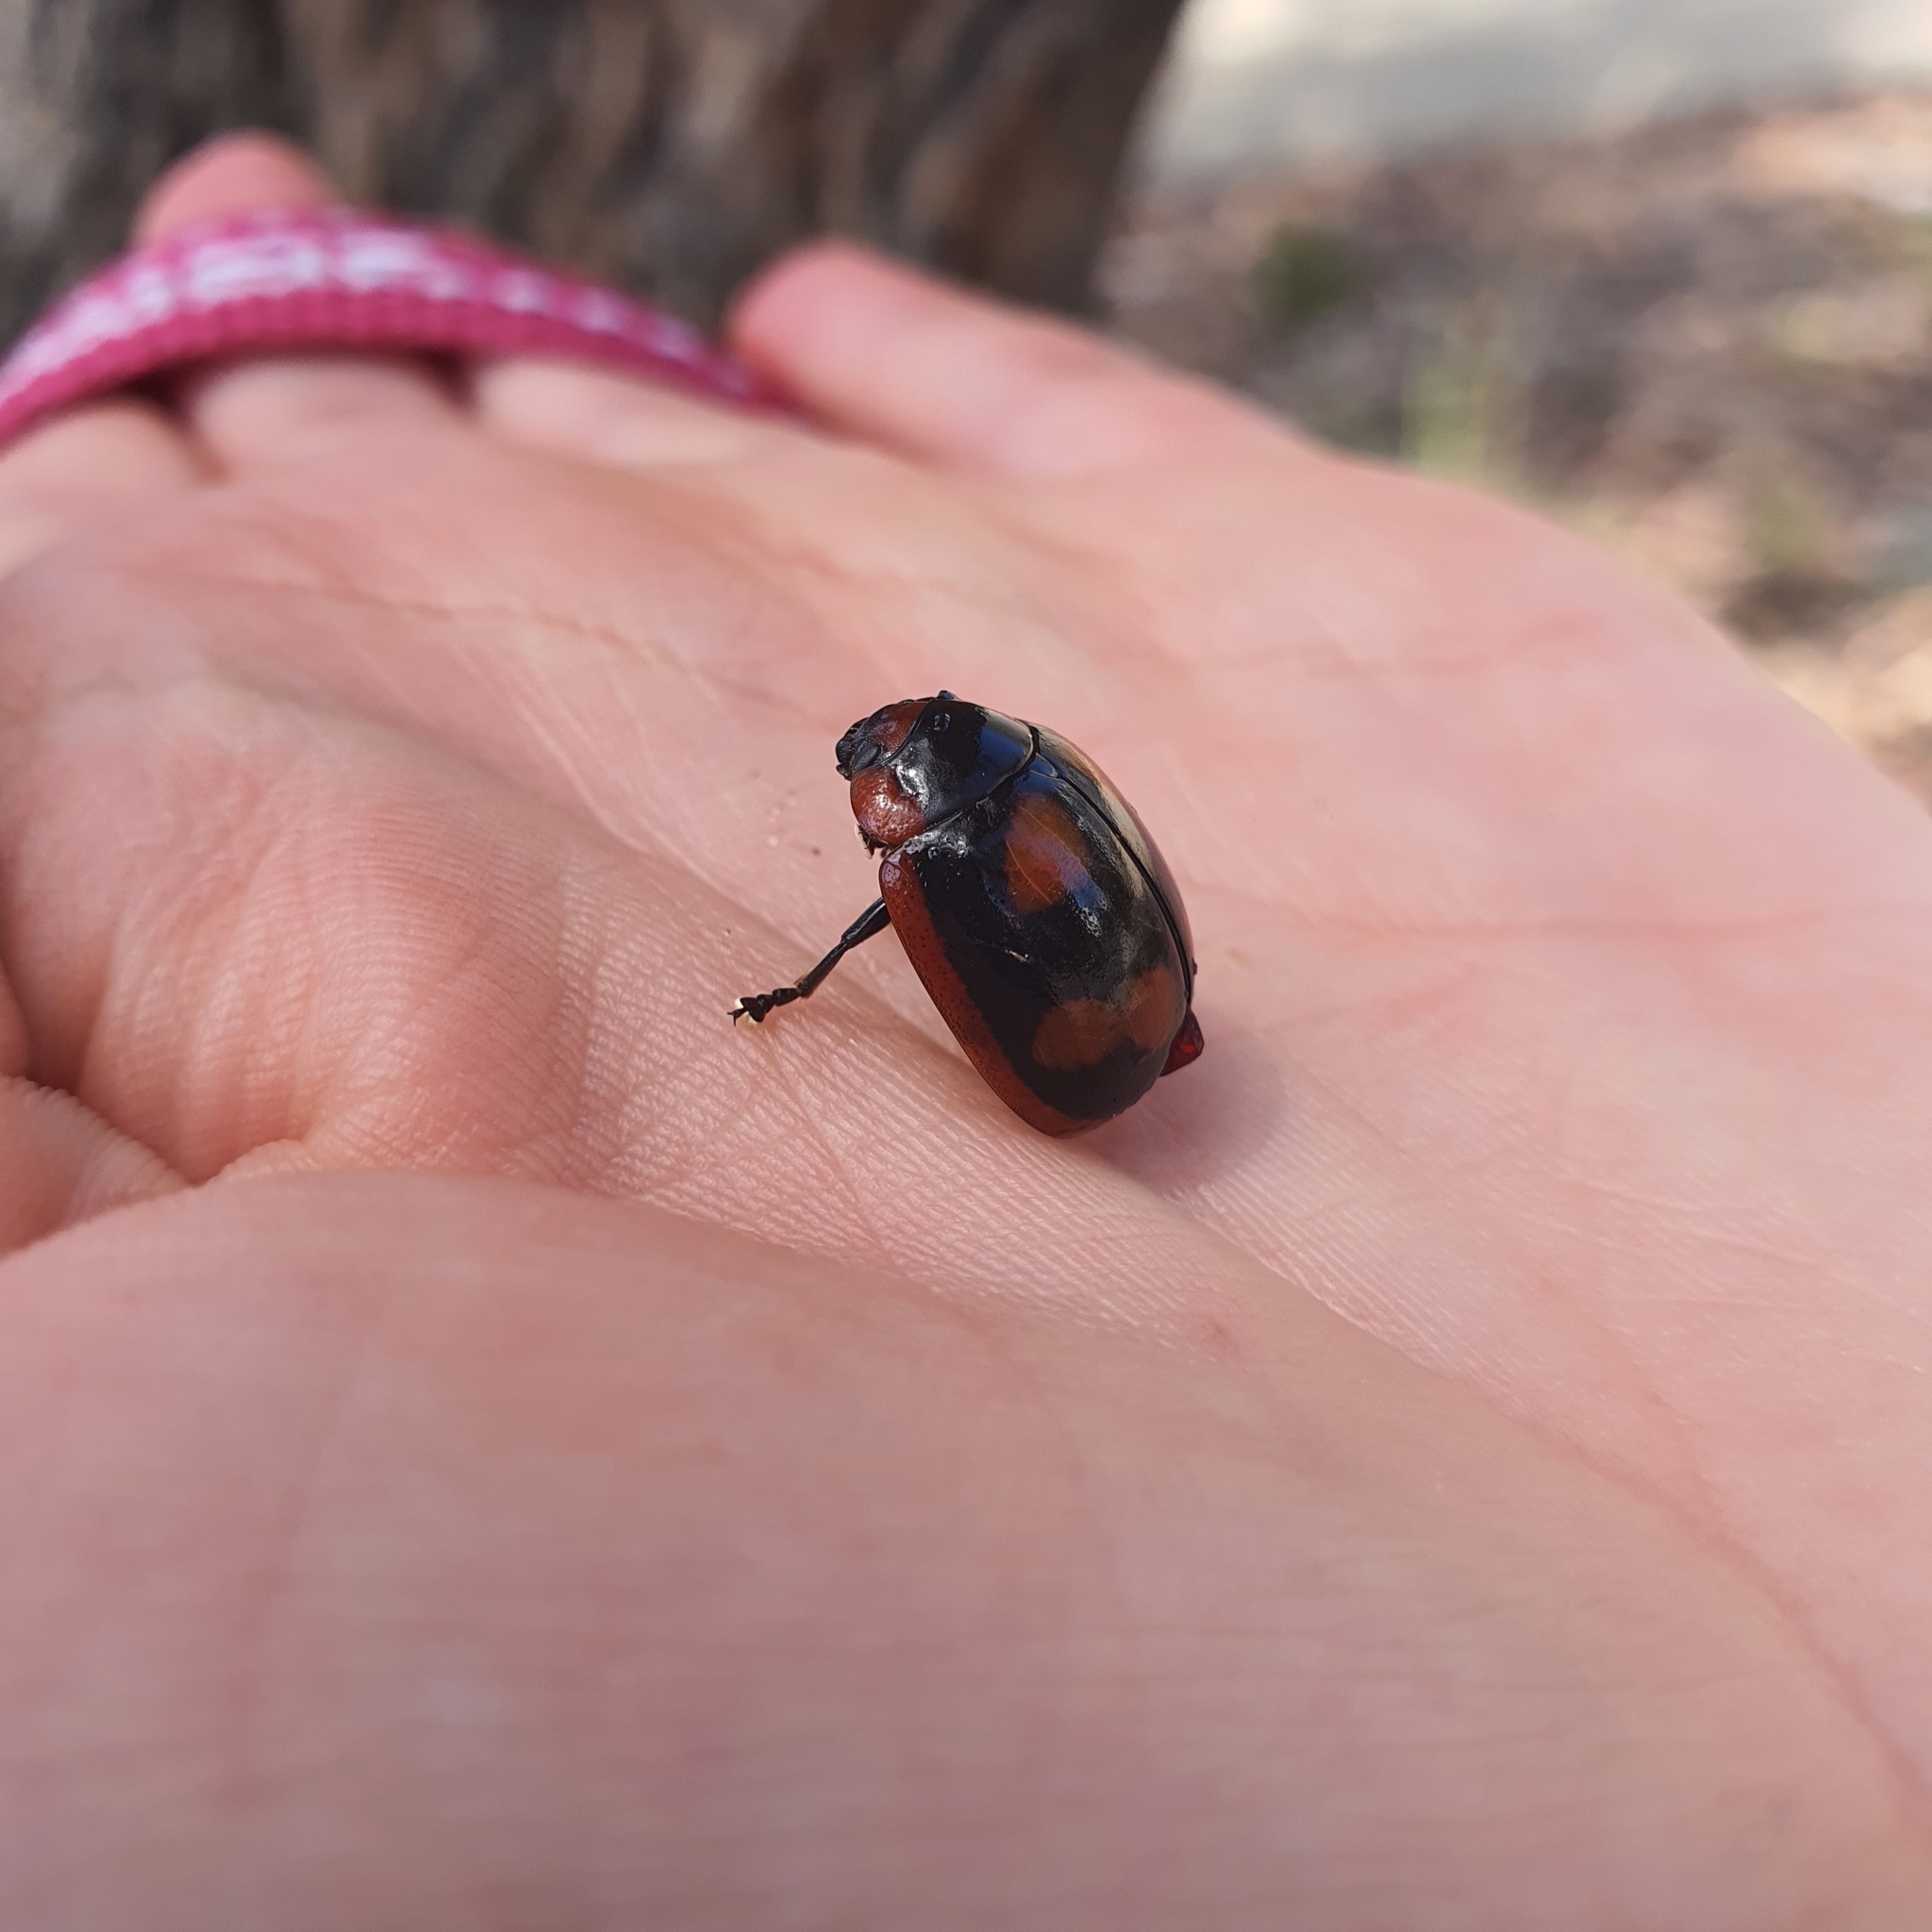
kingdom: Animalia
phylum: Arthropoda
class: Insecta
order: Coleoptera
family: Chrysomelidae
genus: Paropsisterna
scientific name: Paropsisterna beata
